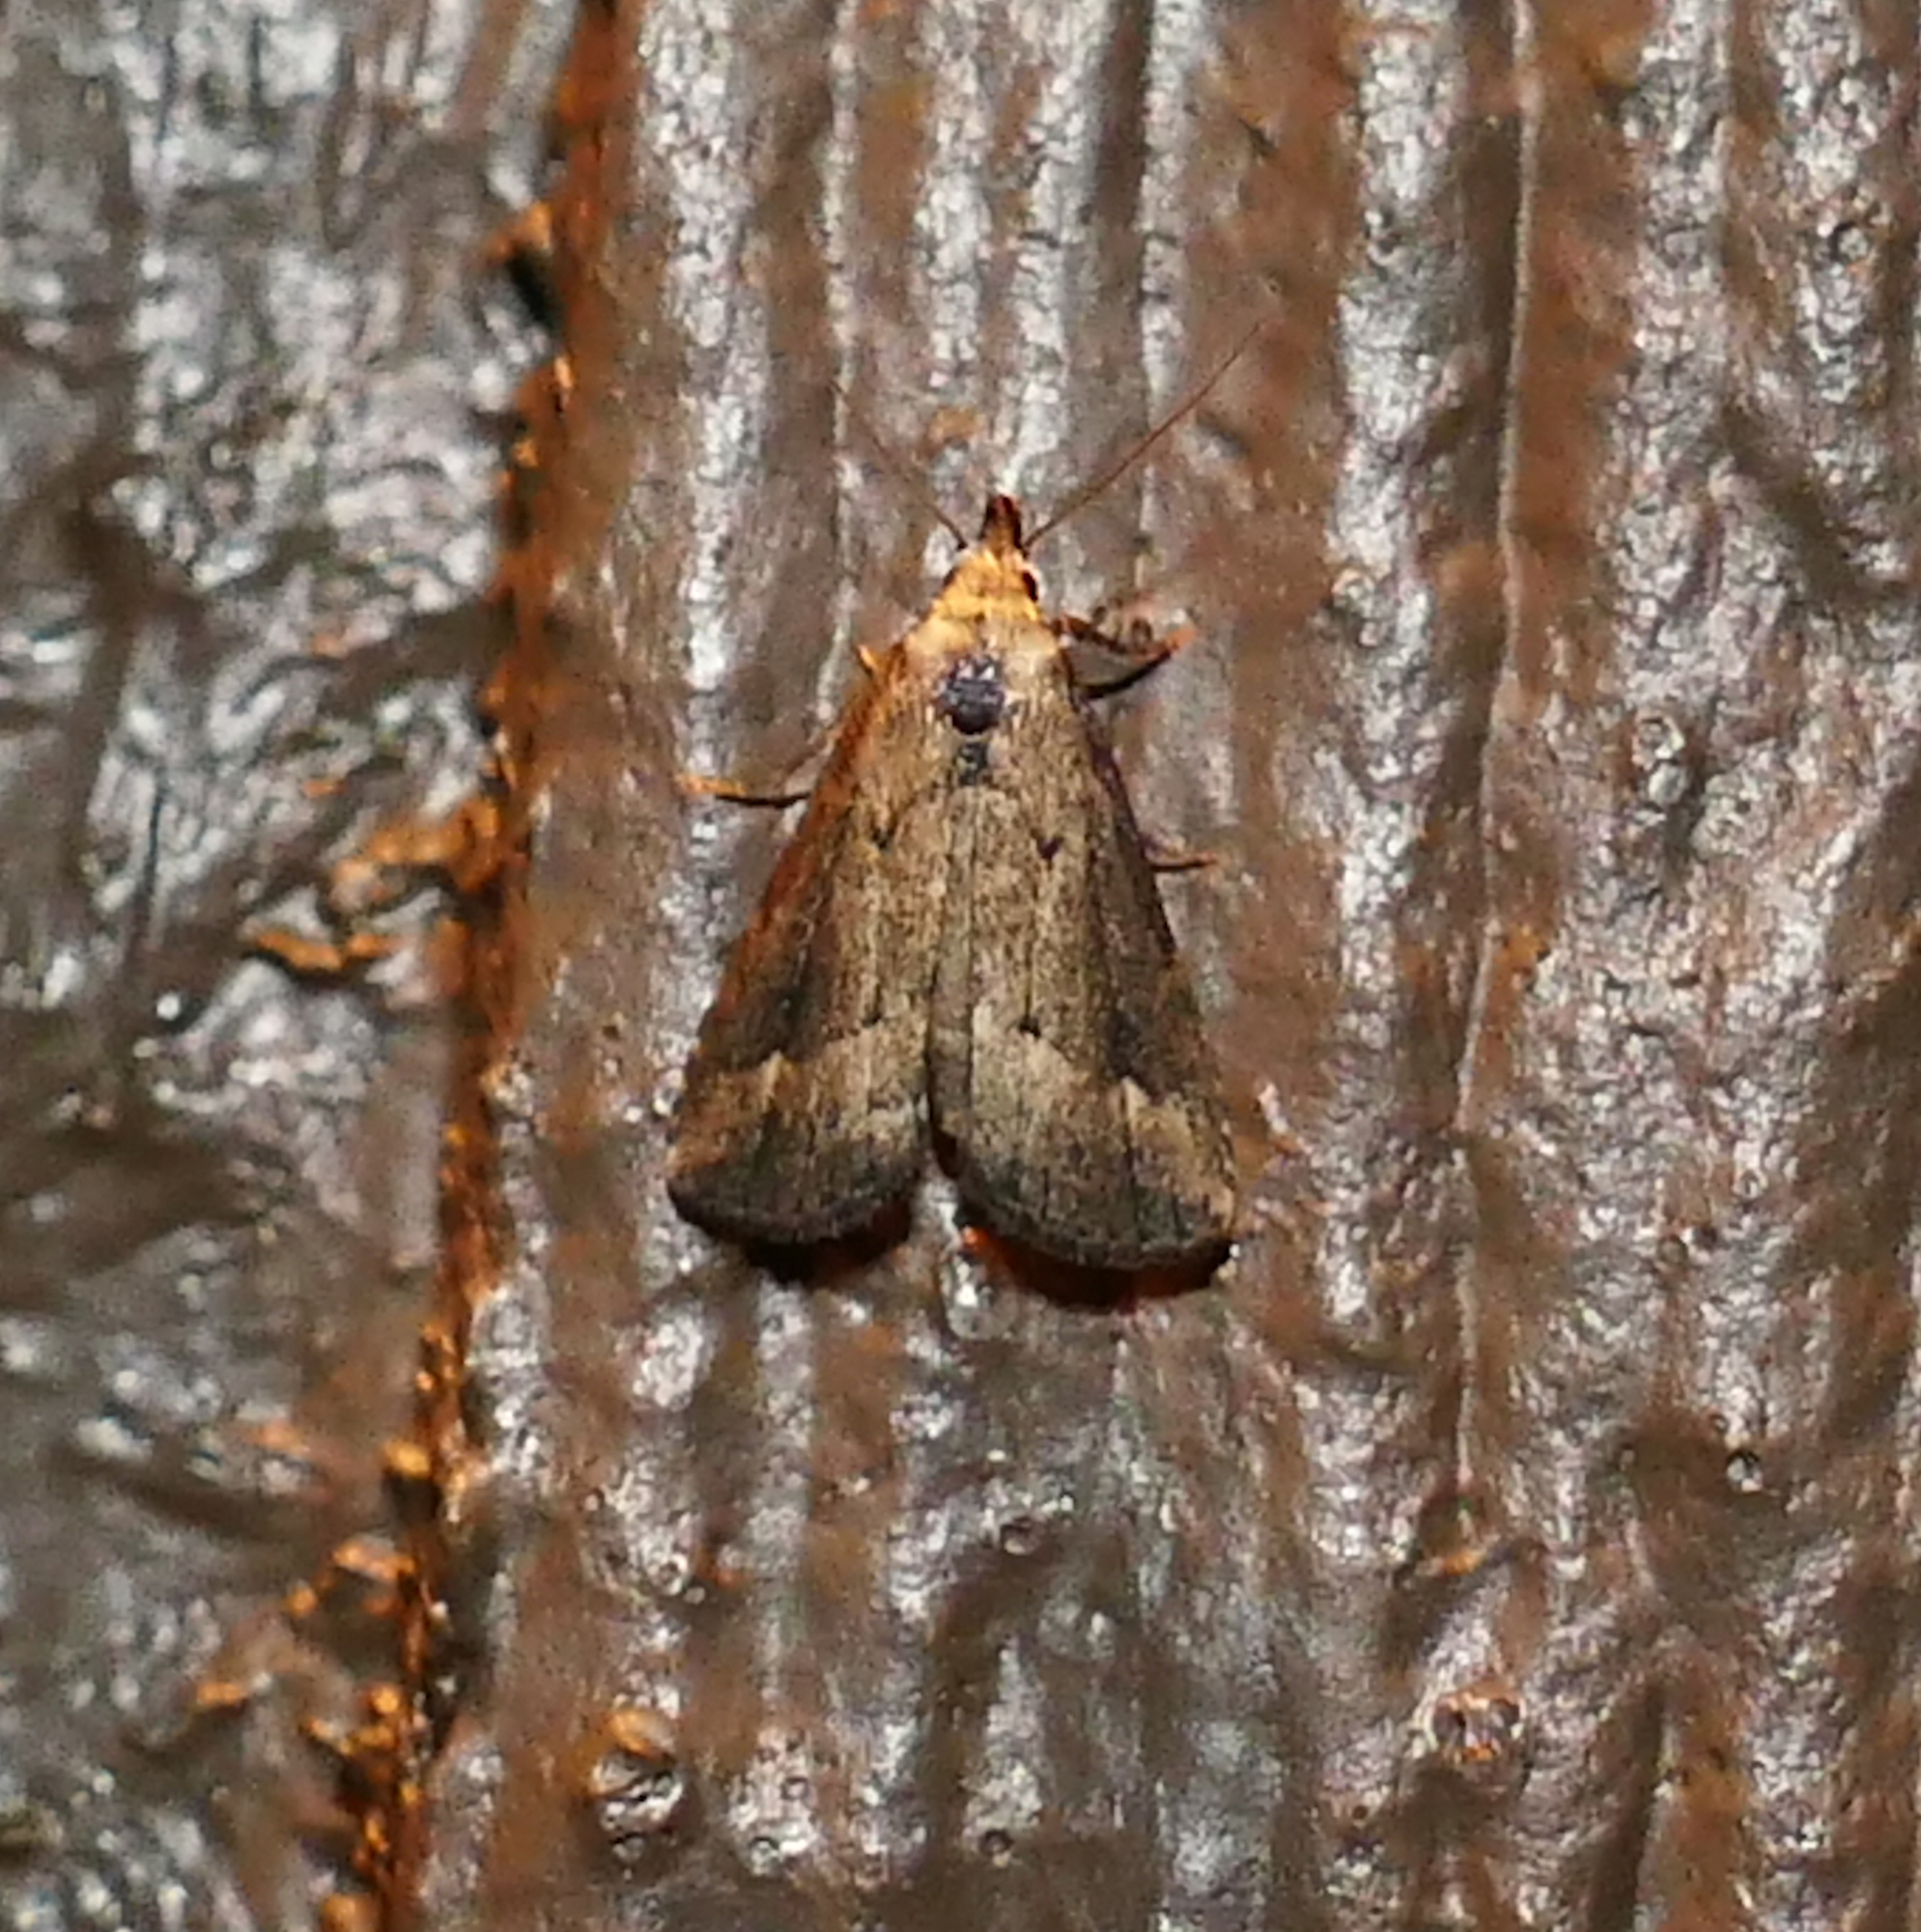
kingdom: Animalia
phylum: Arthropoda
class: Insecta
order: Lepidoptera
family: Erebidae
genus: Schrankia
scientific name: Schrankia
